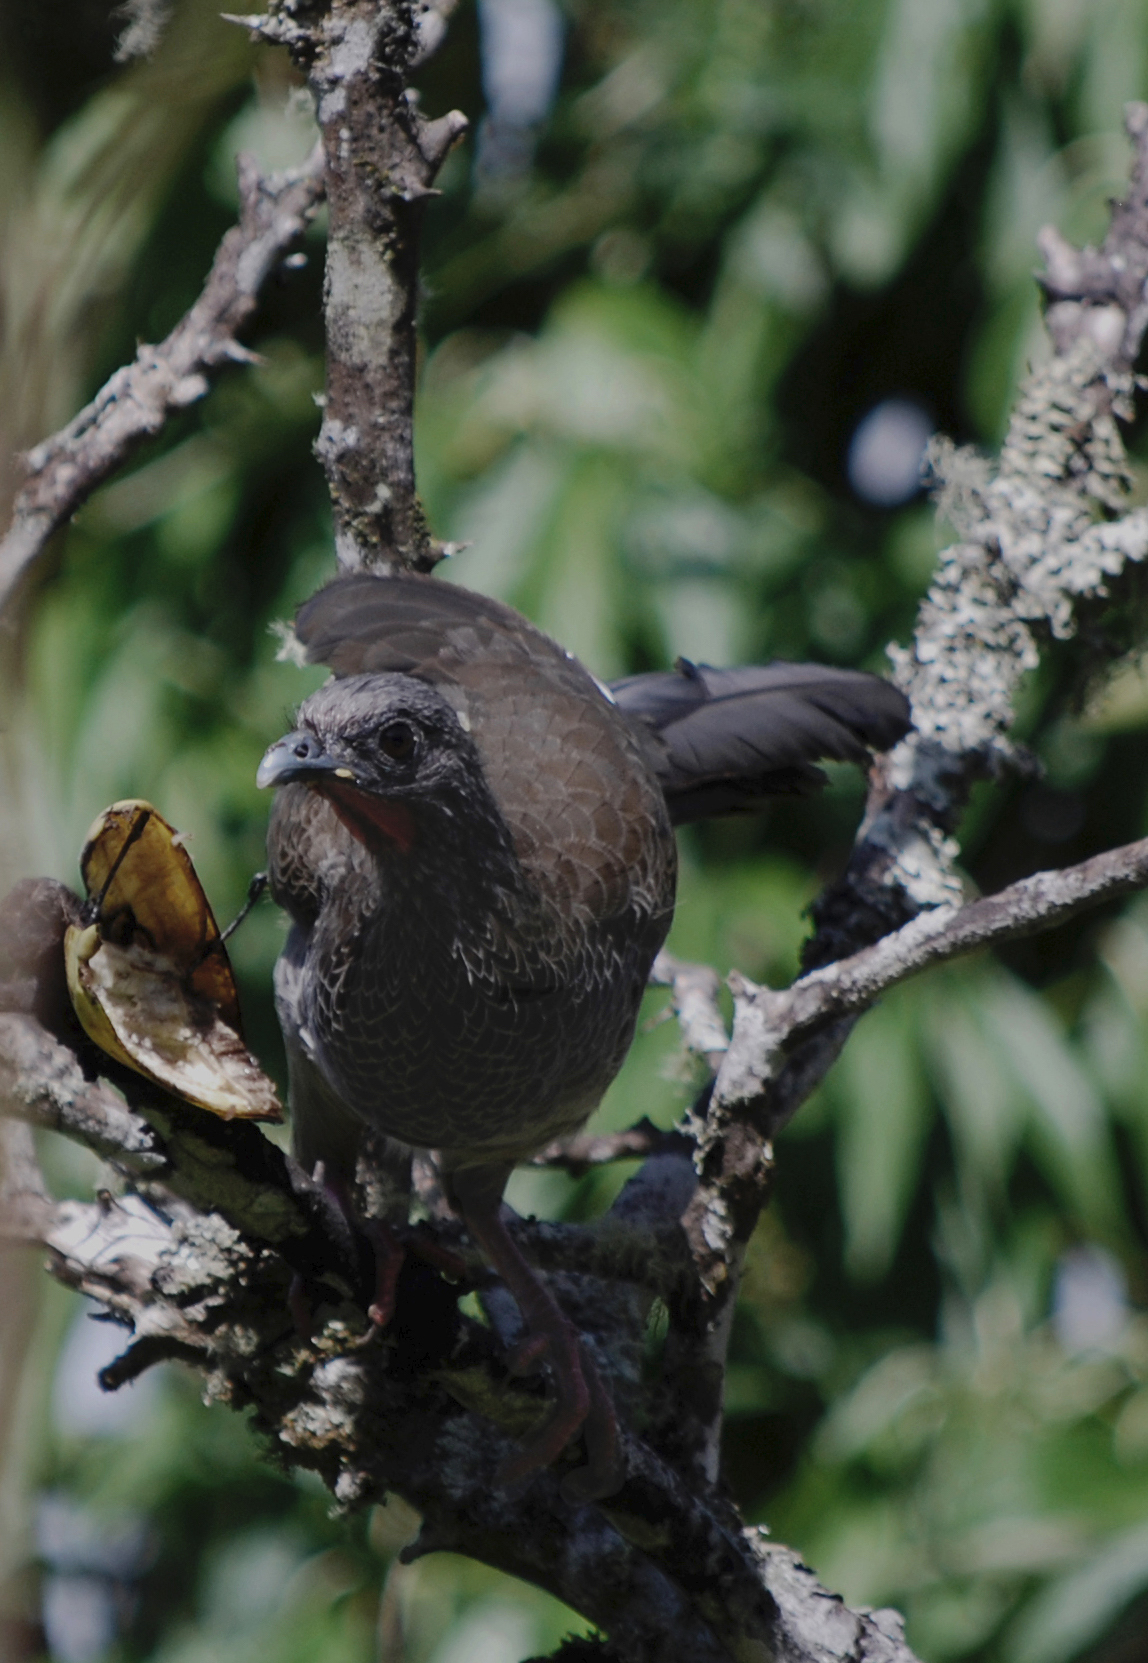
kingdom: Animalia
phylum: Chordata
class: Aves
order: Galliformes
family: Cracidae
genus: Ortalis
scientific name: Ortalis columbiana
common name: Colombian chachalaca
